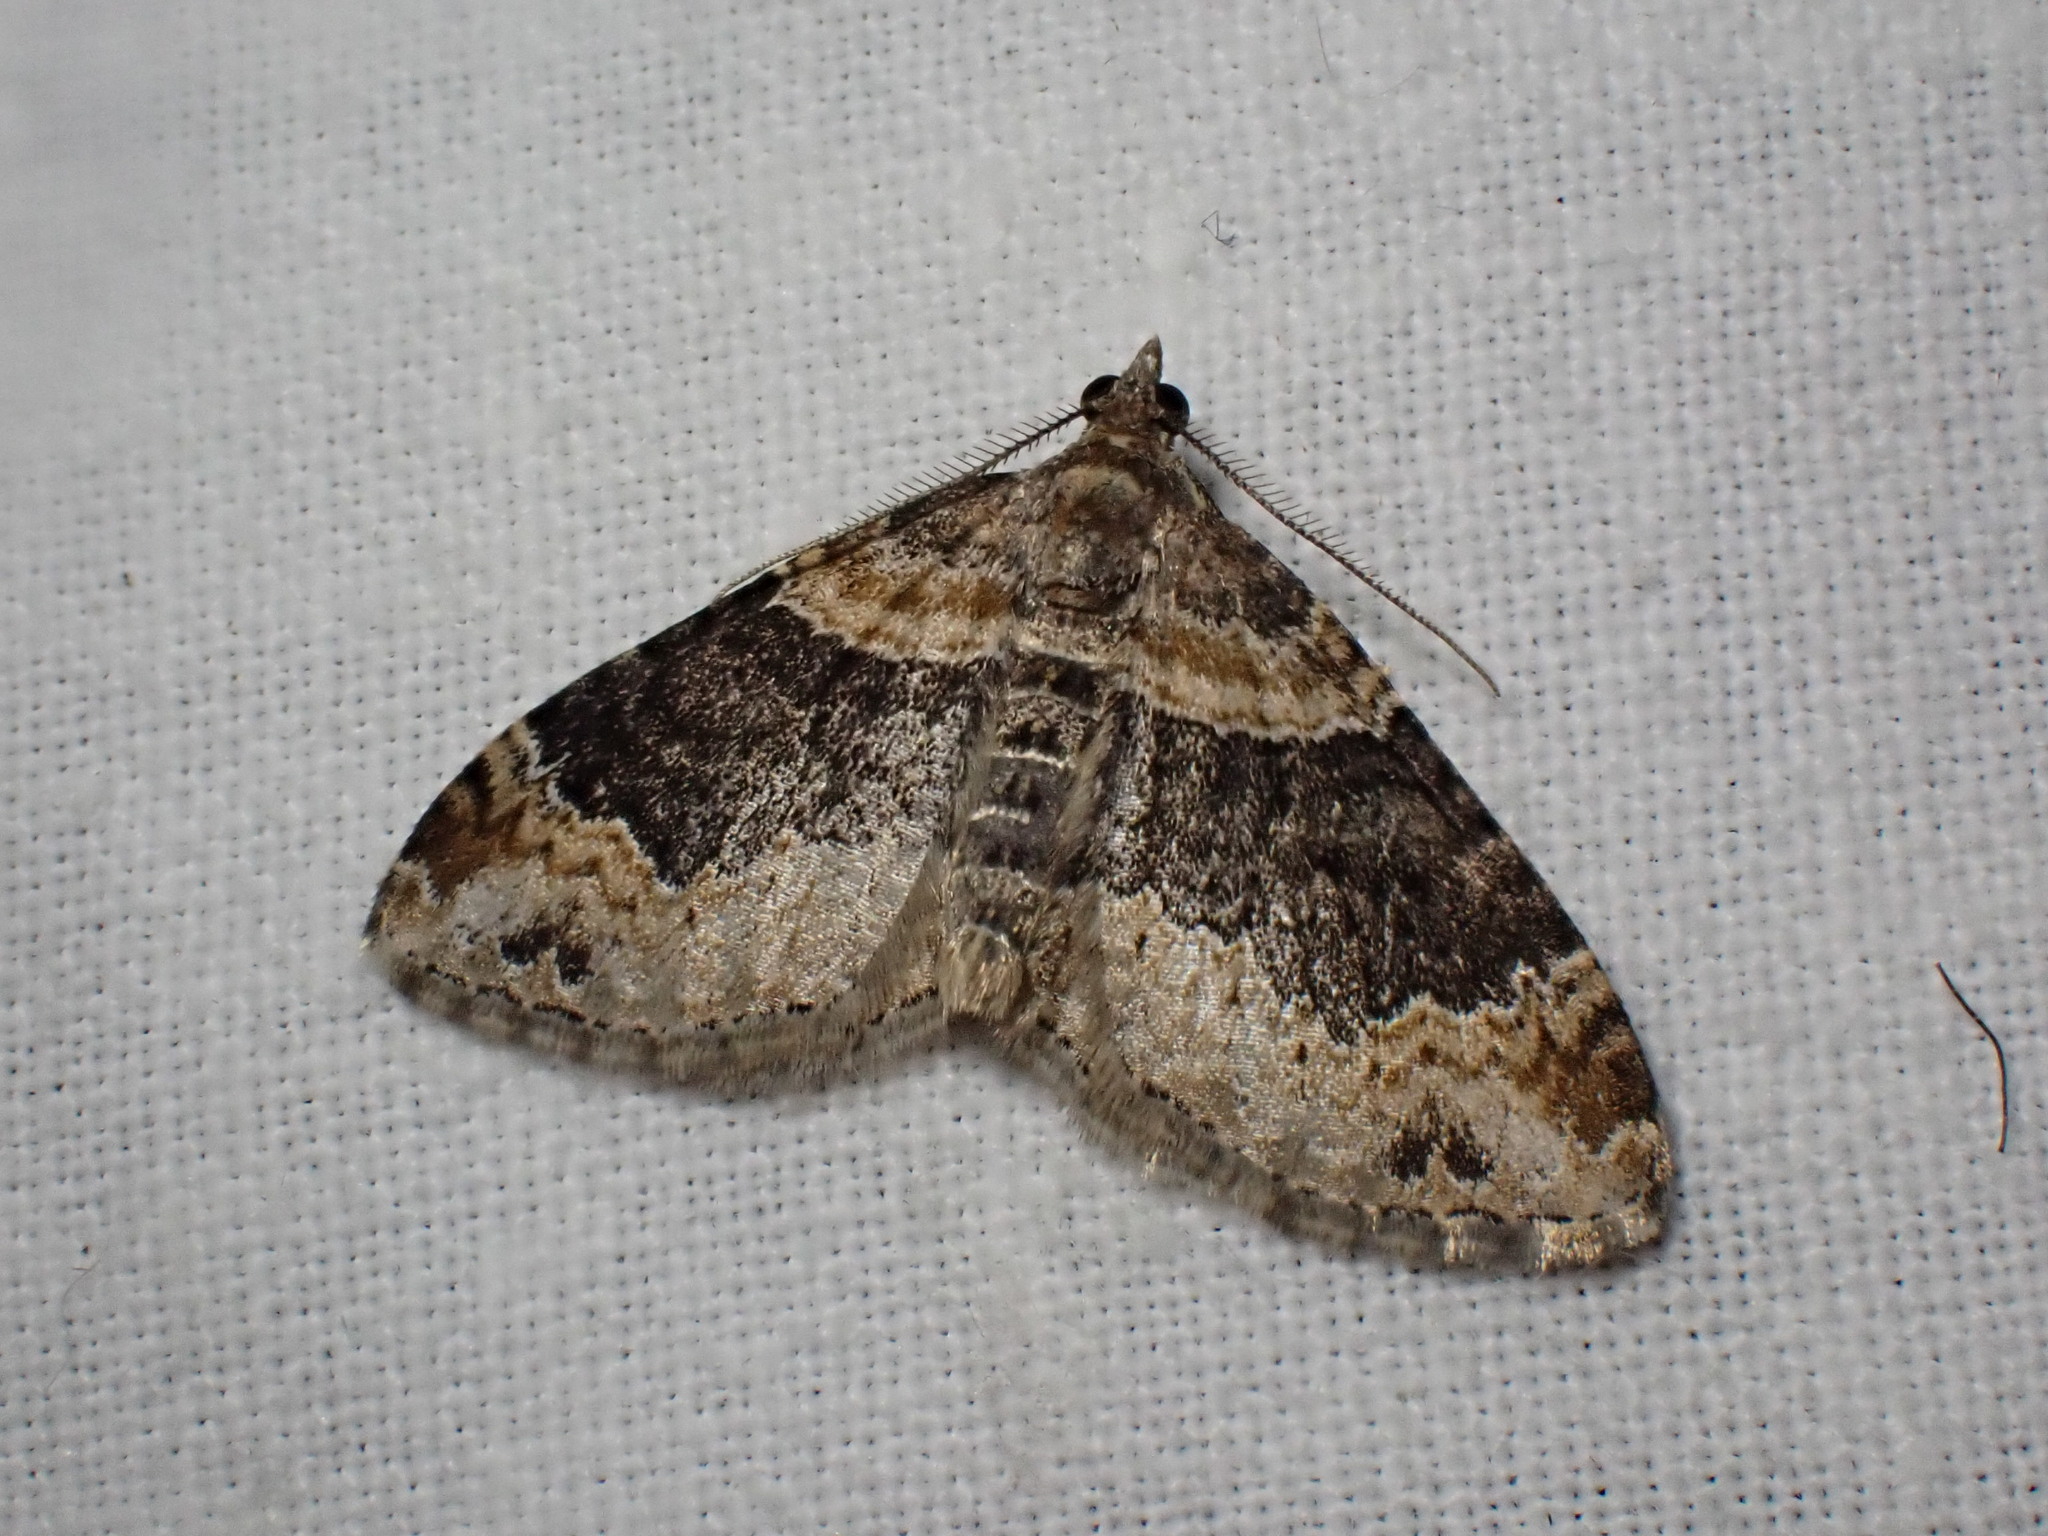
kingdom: Animalia
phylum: Arthropoda
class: Insecta
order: Lepidoptera
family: Geometridae
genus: Xanthorhoe
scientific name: Xanthorhoe ferrugata
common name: Dark-barred twin-spot carpet
